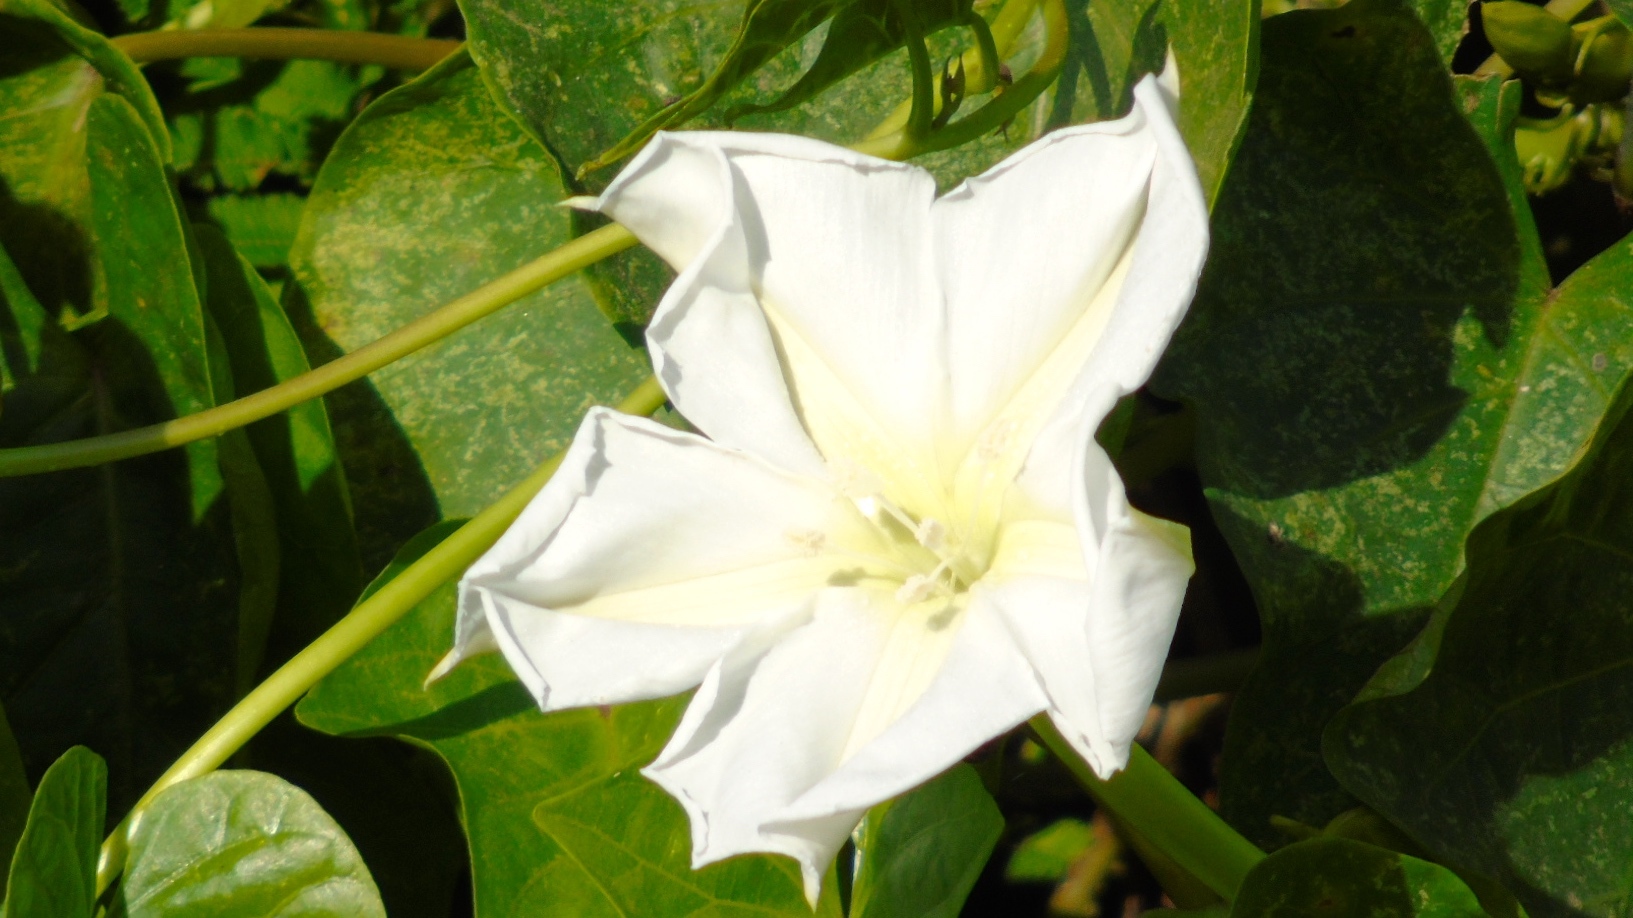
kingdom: Plantae
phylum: Tracheophyta
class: Magnoliopsida
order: Solanales
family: Convolvulaceae
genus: Ipomoea
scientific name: Ipomoea alba
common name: Moonflower
